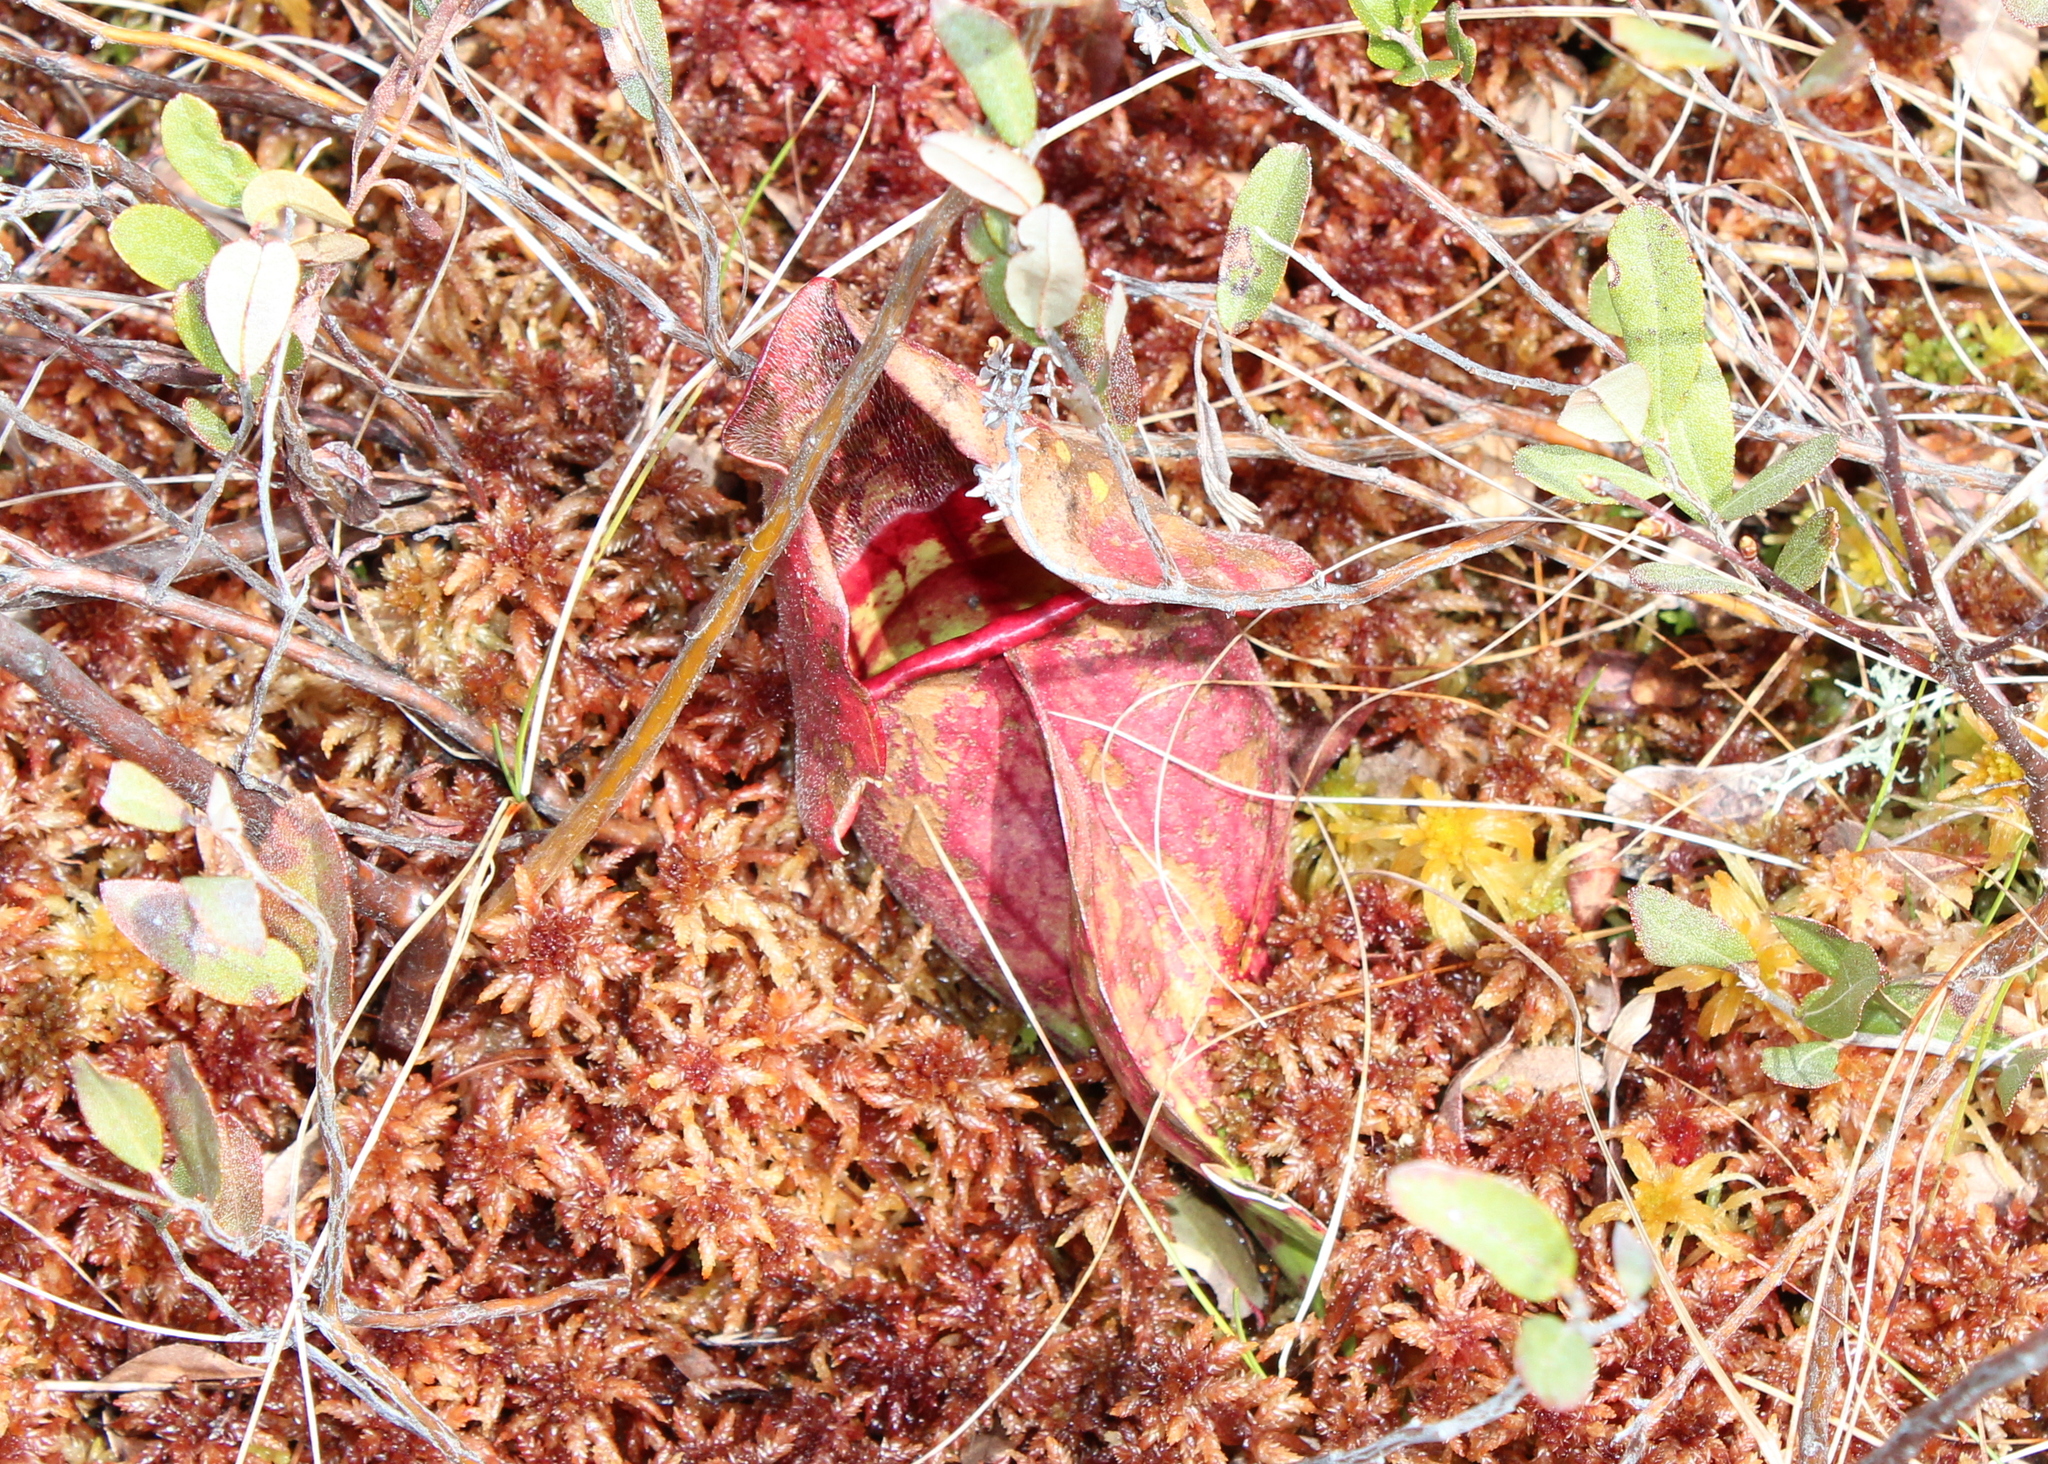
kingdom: Plantae
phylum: Tracheophyta
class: Magnoliopsida
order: Ericales
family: Sarraceniaceae
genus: Sarracenia
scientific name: Sarracenia purpurea
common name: Pitcherplant
